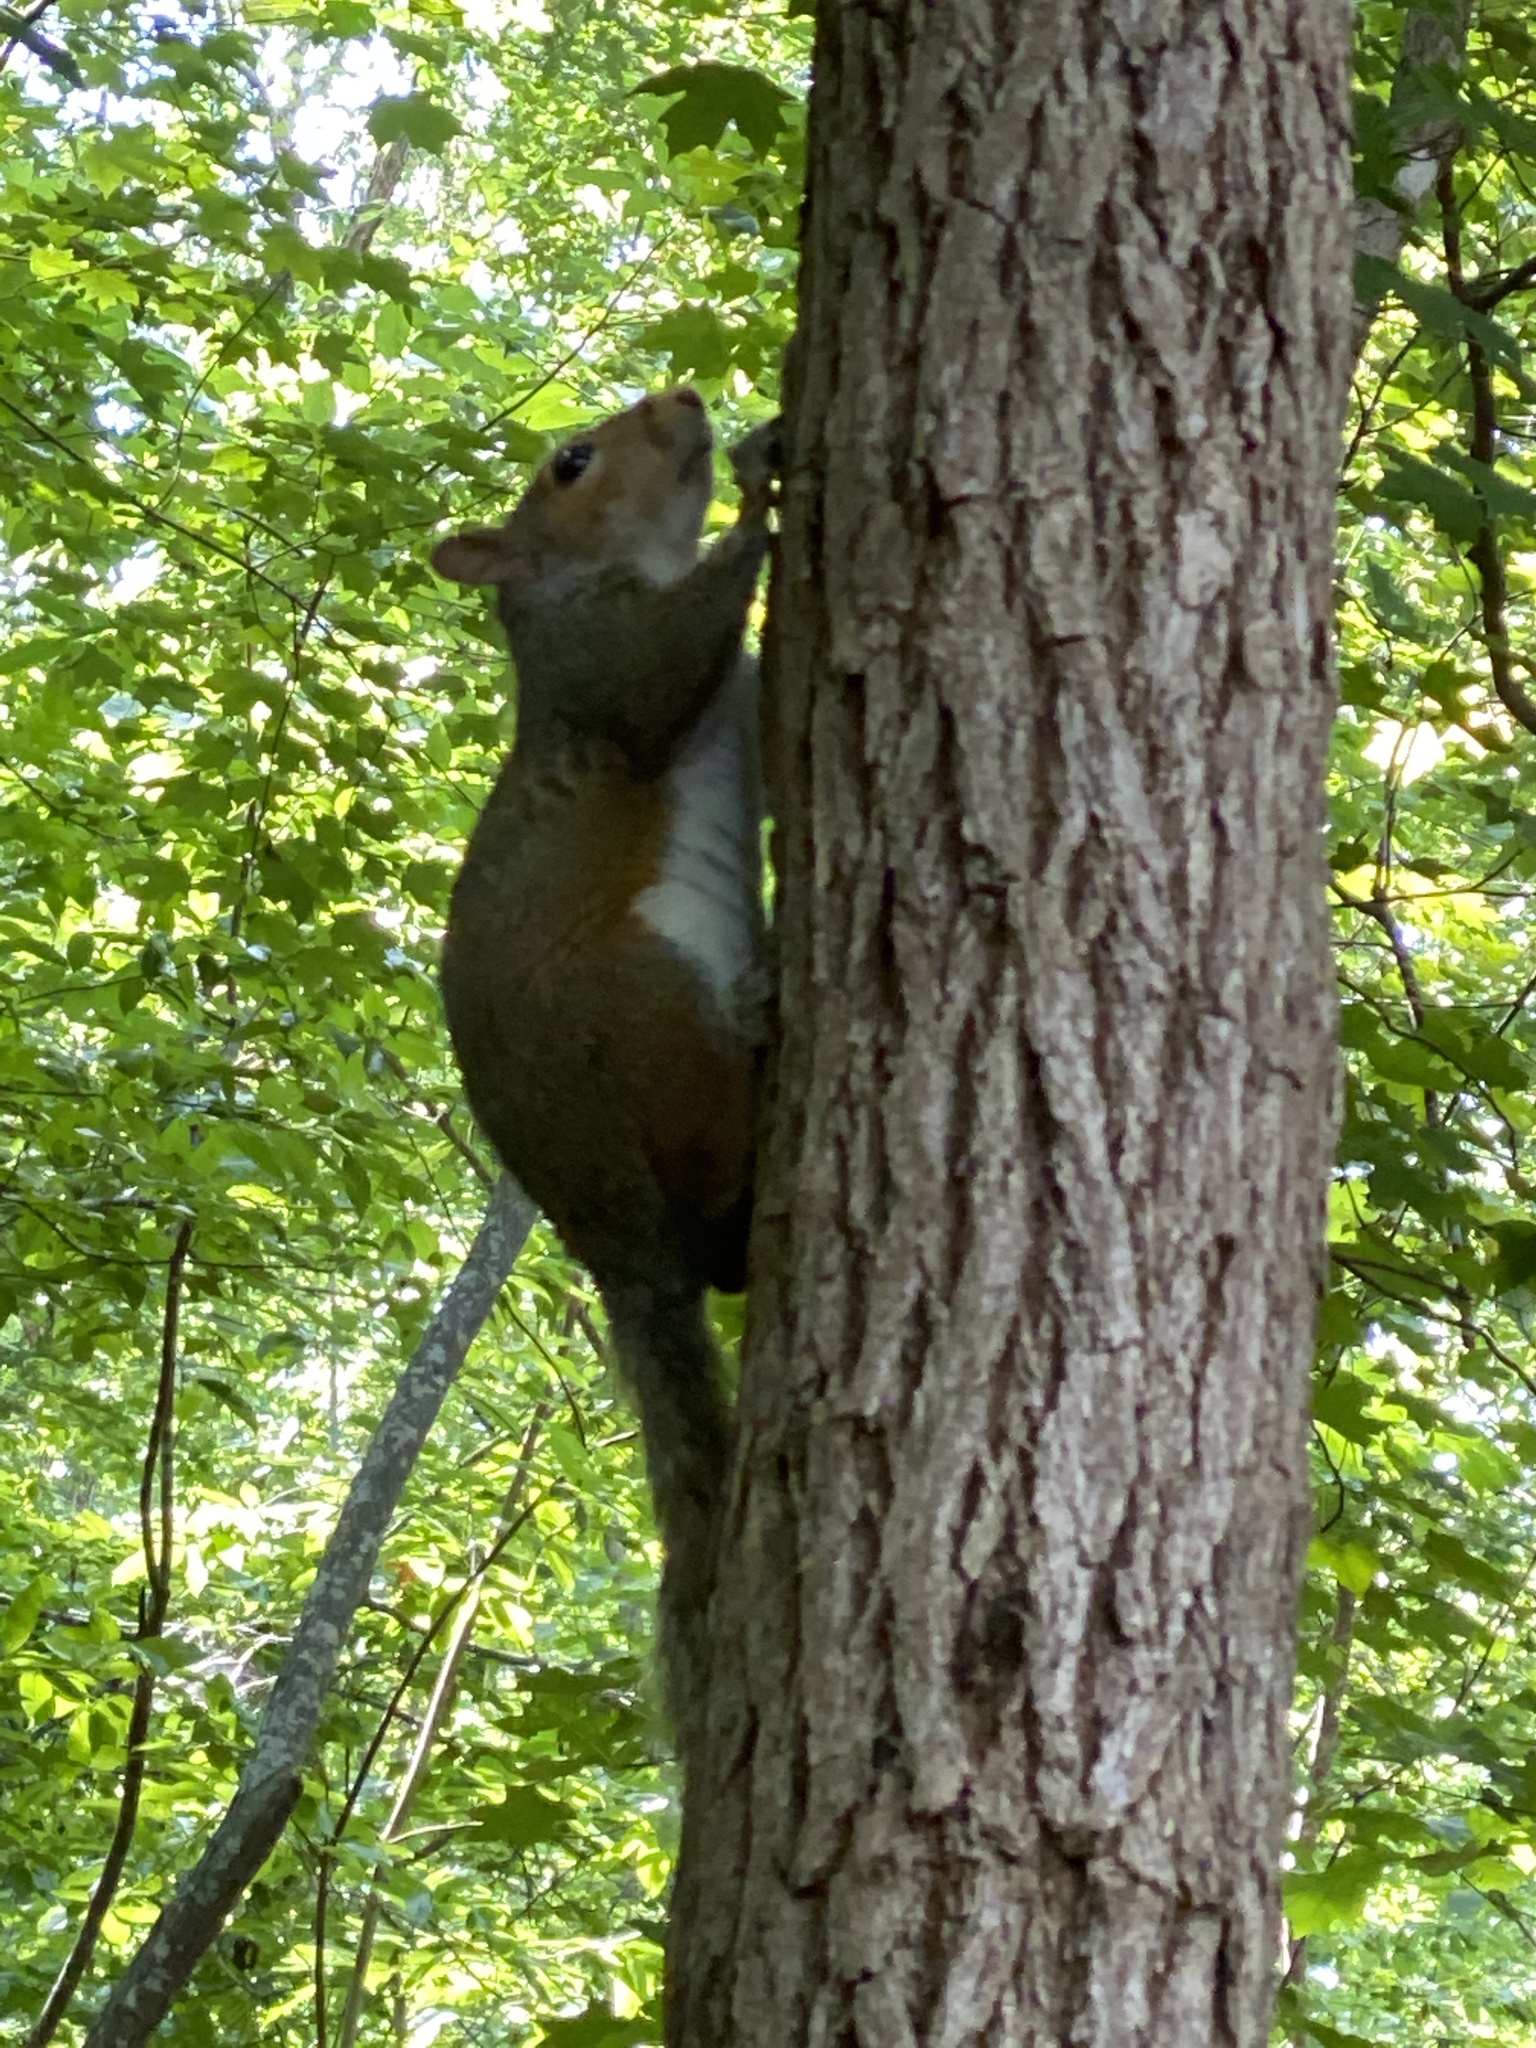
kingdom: Animalia
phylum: Chordata
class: Mammalia
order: Rodentia
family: Sciuridae
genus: Sciurus
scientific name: Sciurus carolinensis
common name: Eastern gray squirrel
